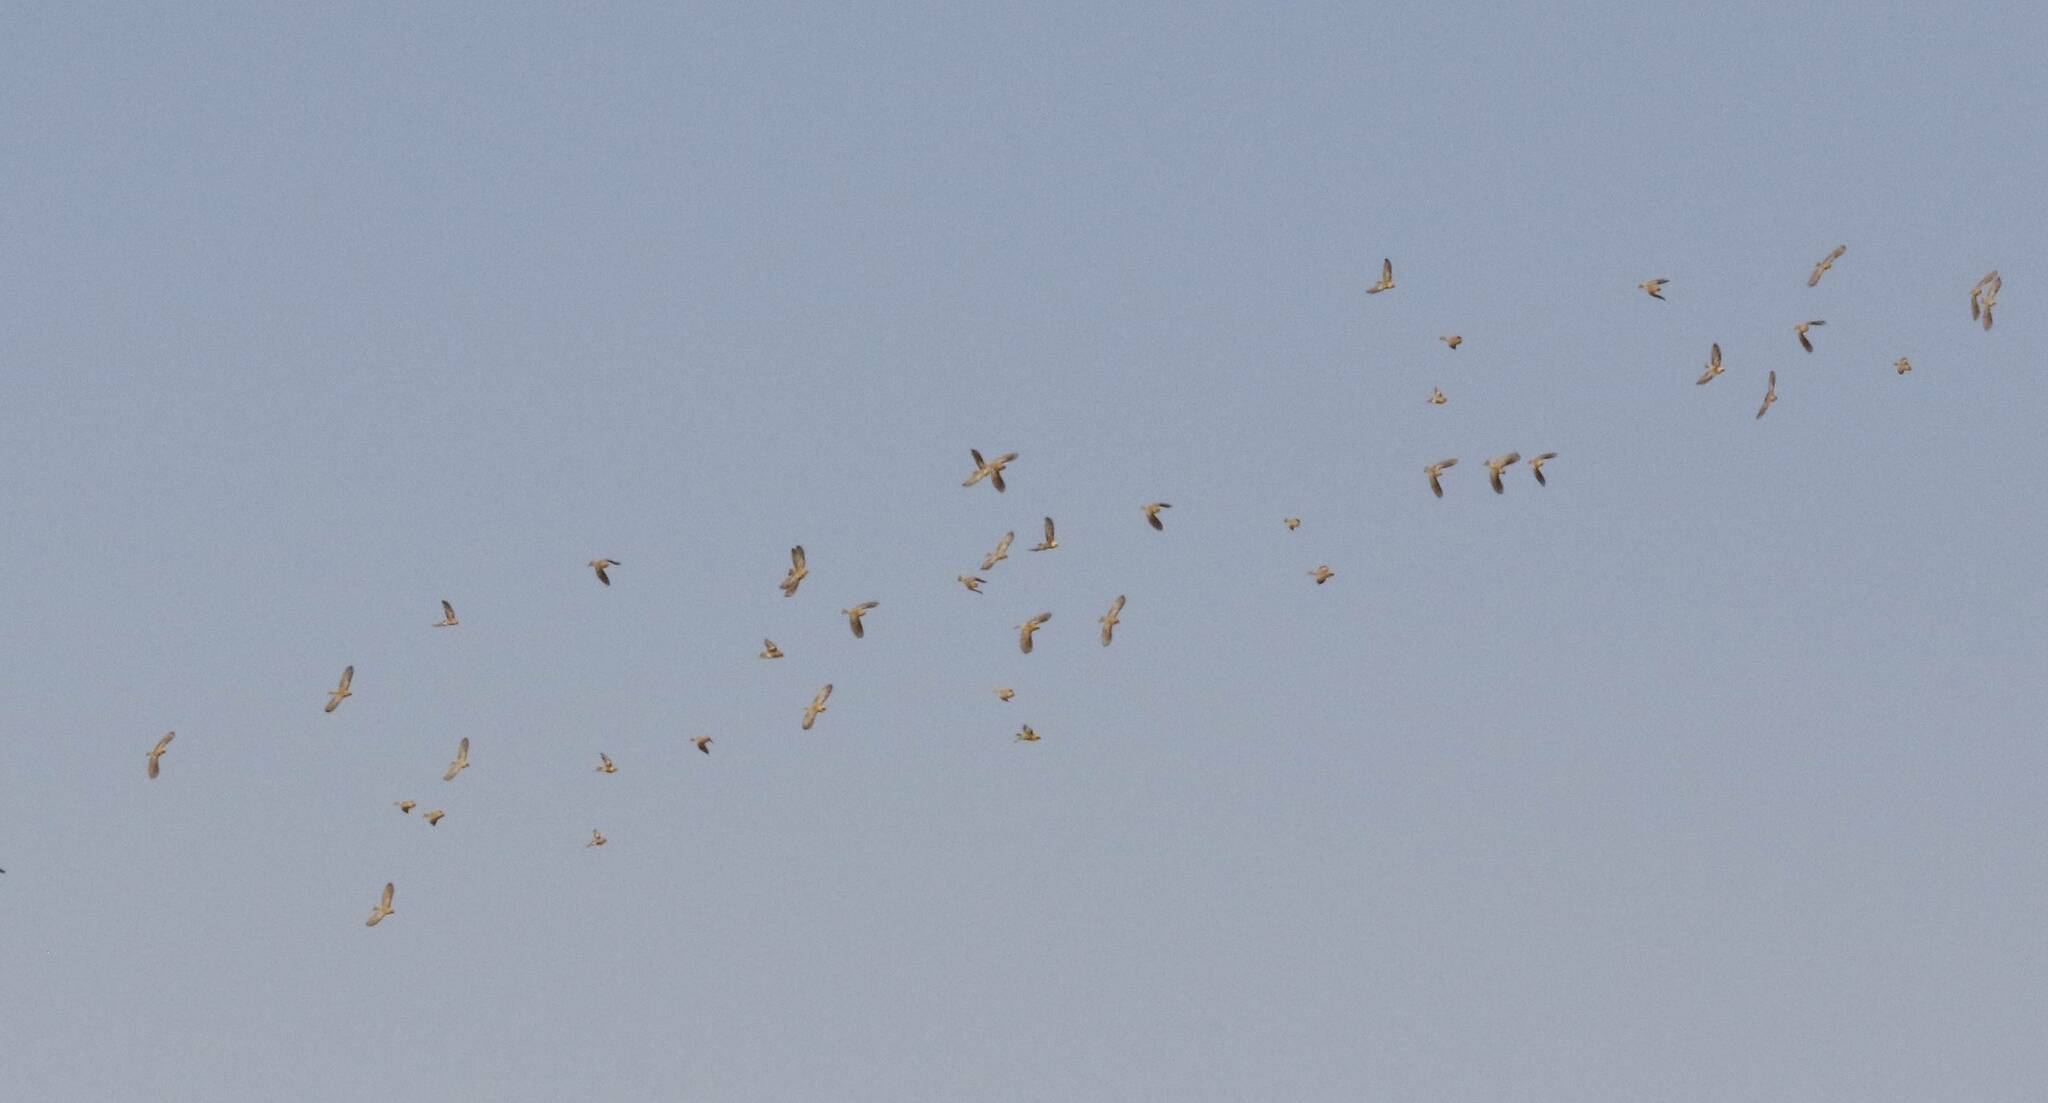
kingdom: Animalia
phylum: Chordata
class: Aves
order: Passeriformes
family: Passeridae
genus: Passer
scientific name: Passer luteus
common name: Sudan golden sparrow
